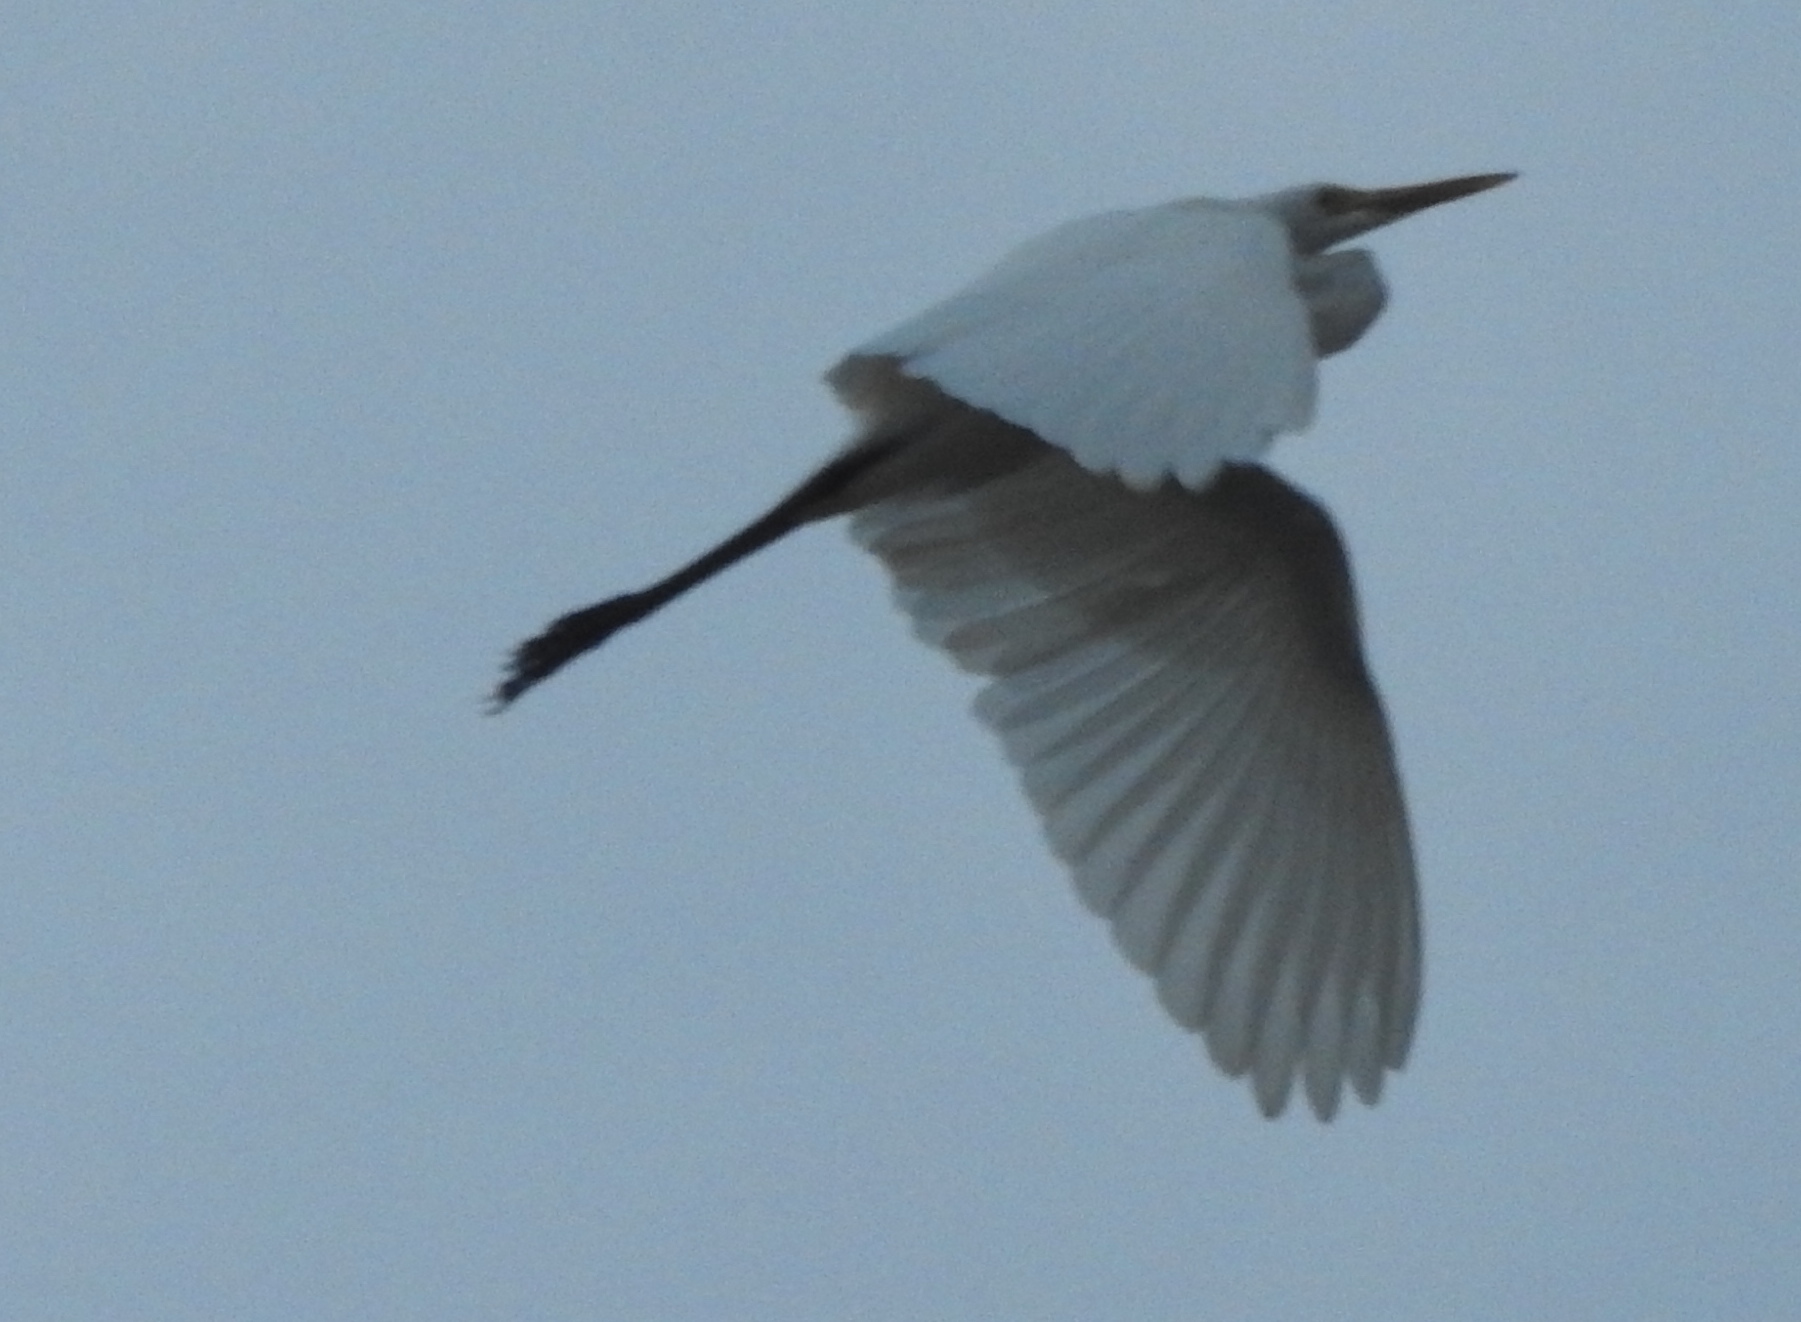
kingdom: Animalia
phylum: Chordata
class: Aves
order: Pelecaniformes
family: Ardeidae
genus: Egretta
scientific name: Egretta intermedia
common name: Intermediate egret
